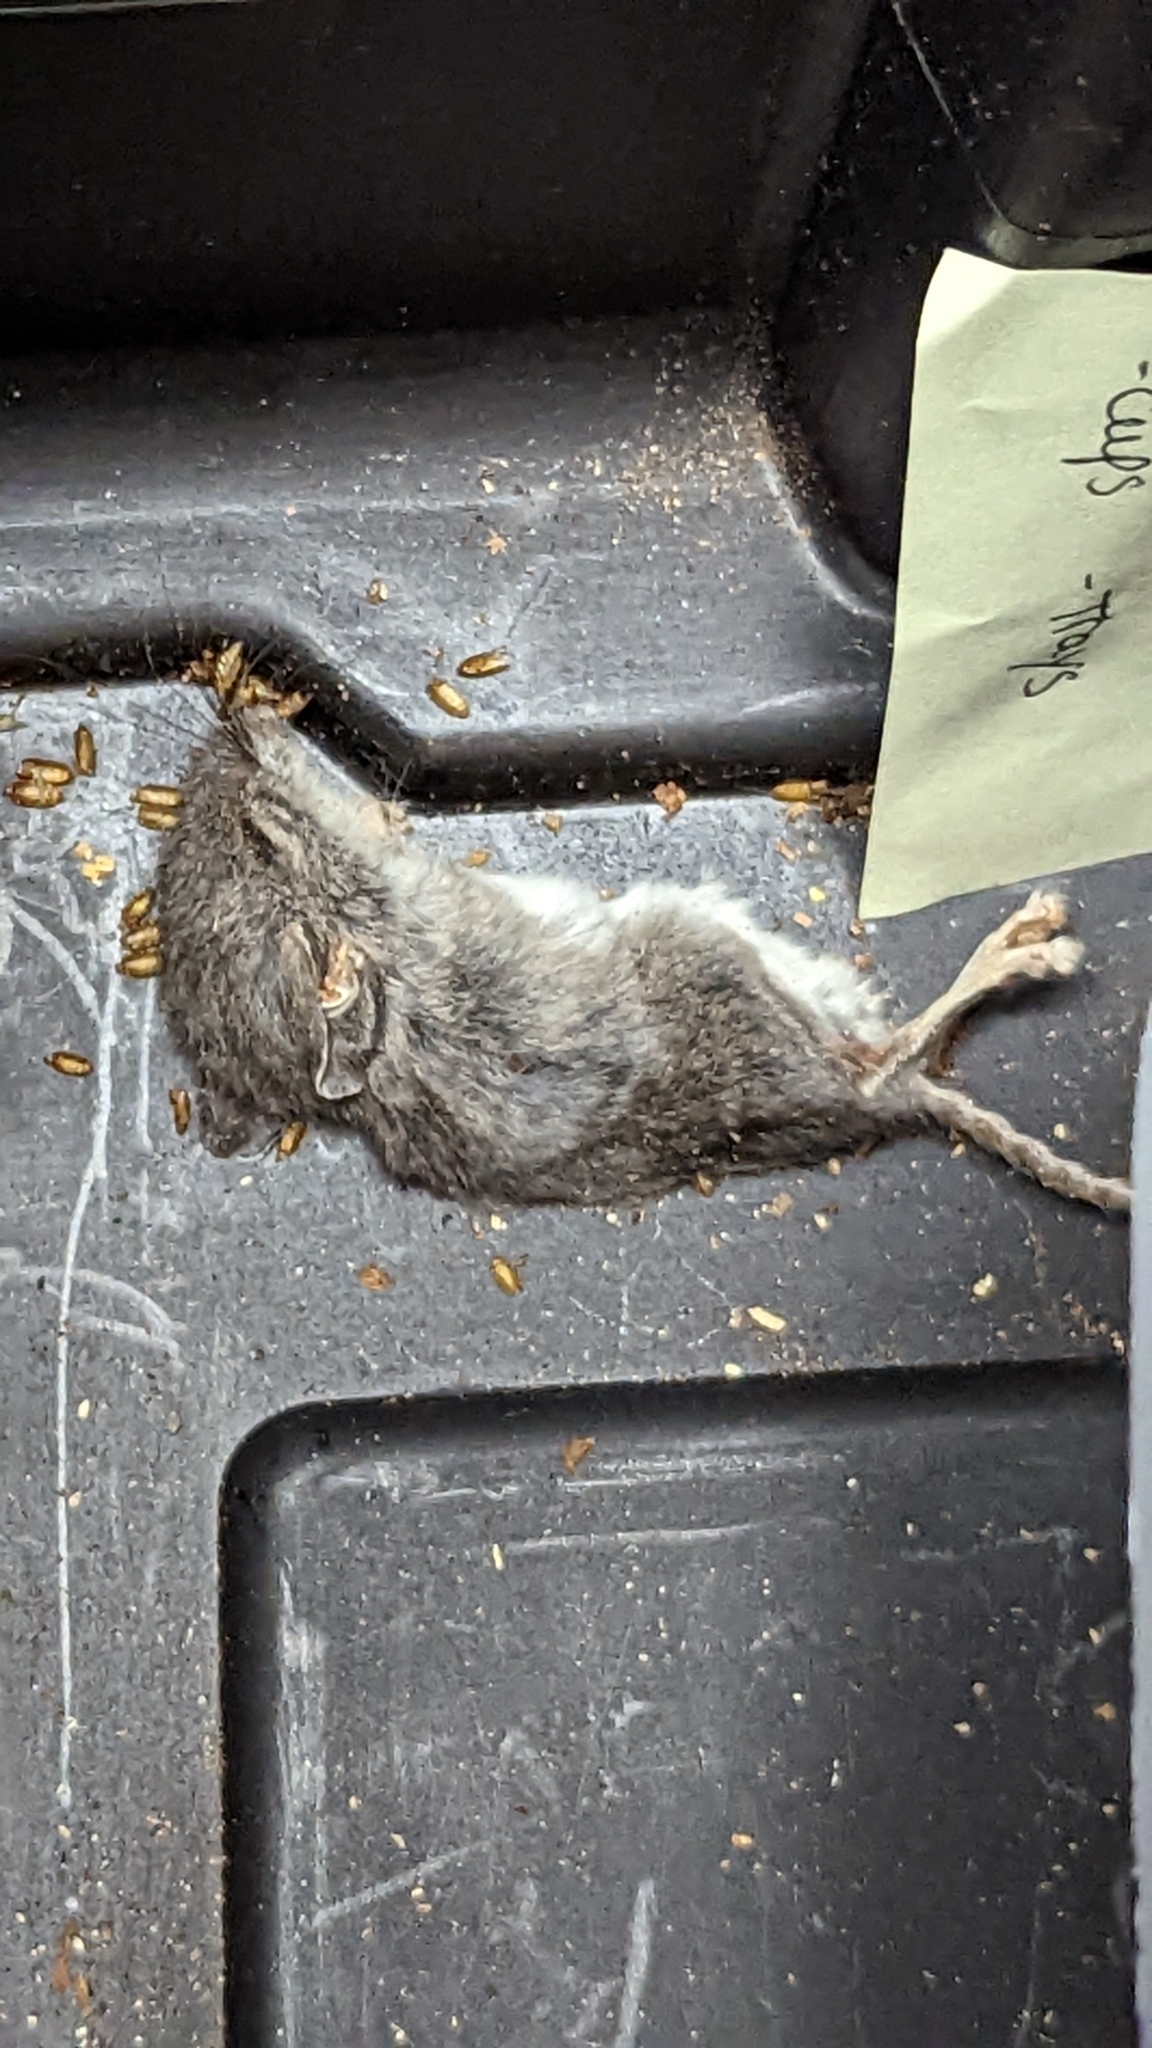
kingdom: Animalia
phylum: Chordata
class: Mammalia
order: Rodentia
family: Cricetidae
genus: Peromyscus
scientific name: Peromyscus
